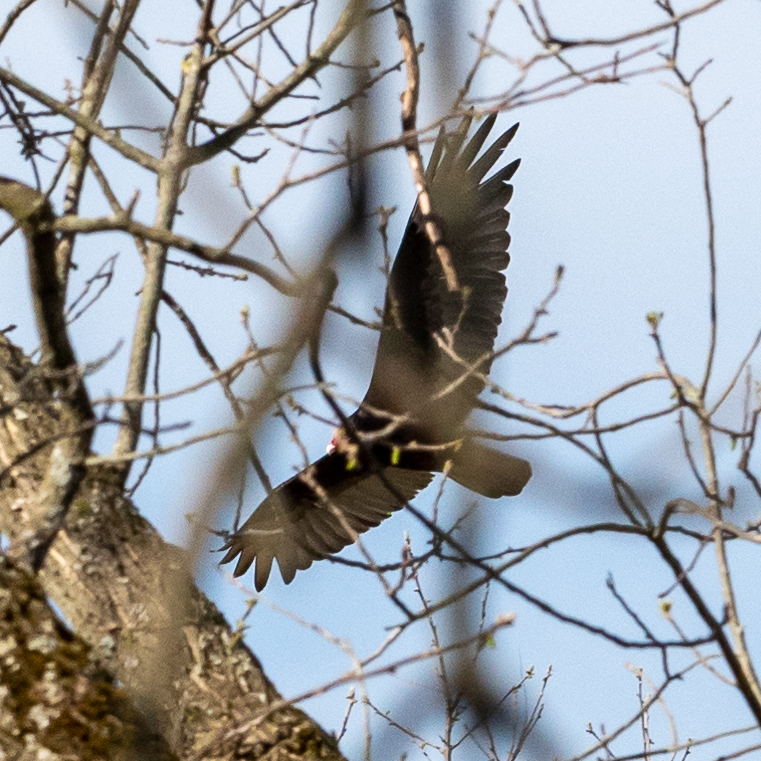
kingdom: Animalia
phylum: Chordata
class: Aves
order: Accipitriformes
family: Cathartidae
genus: Cathartes
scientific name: Cathartes aura
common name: Turkey vulture
